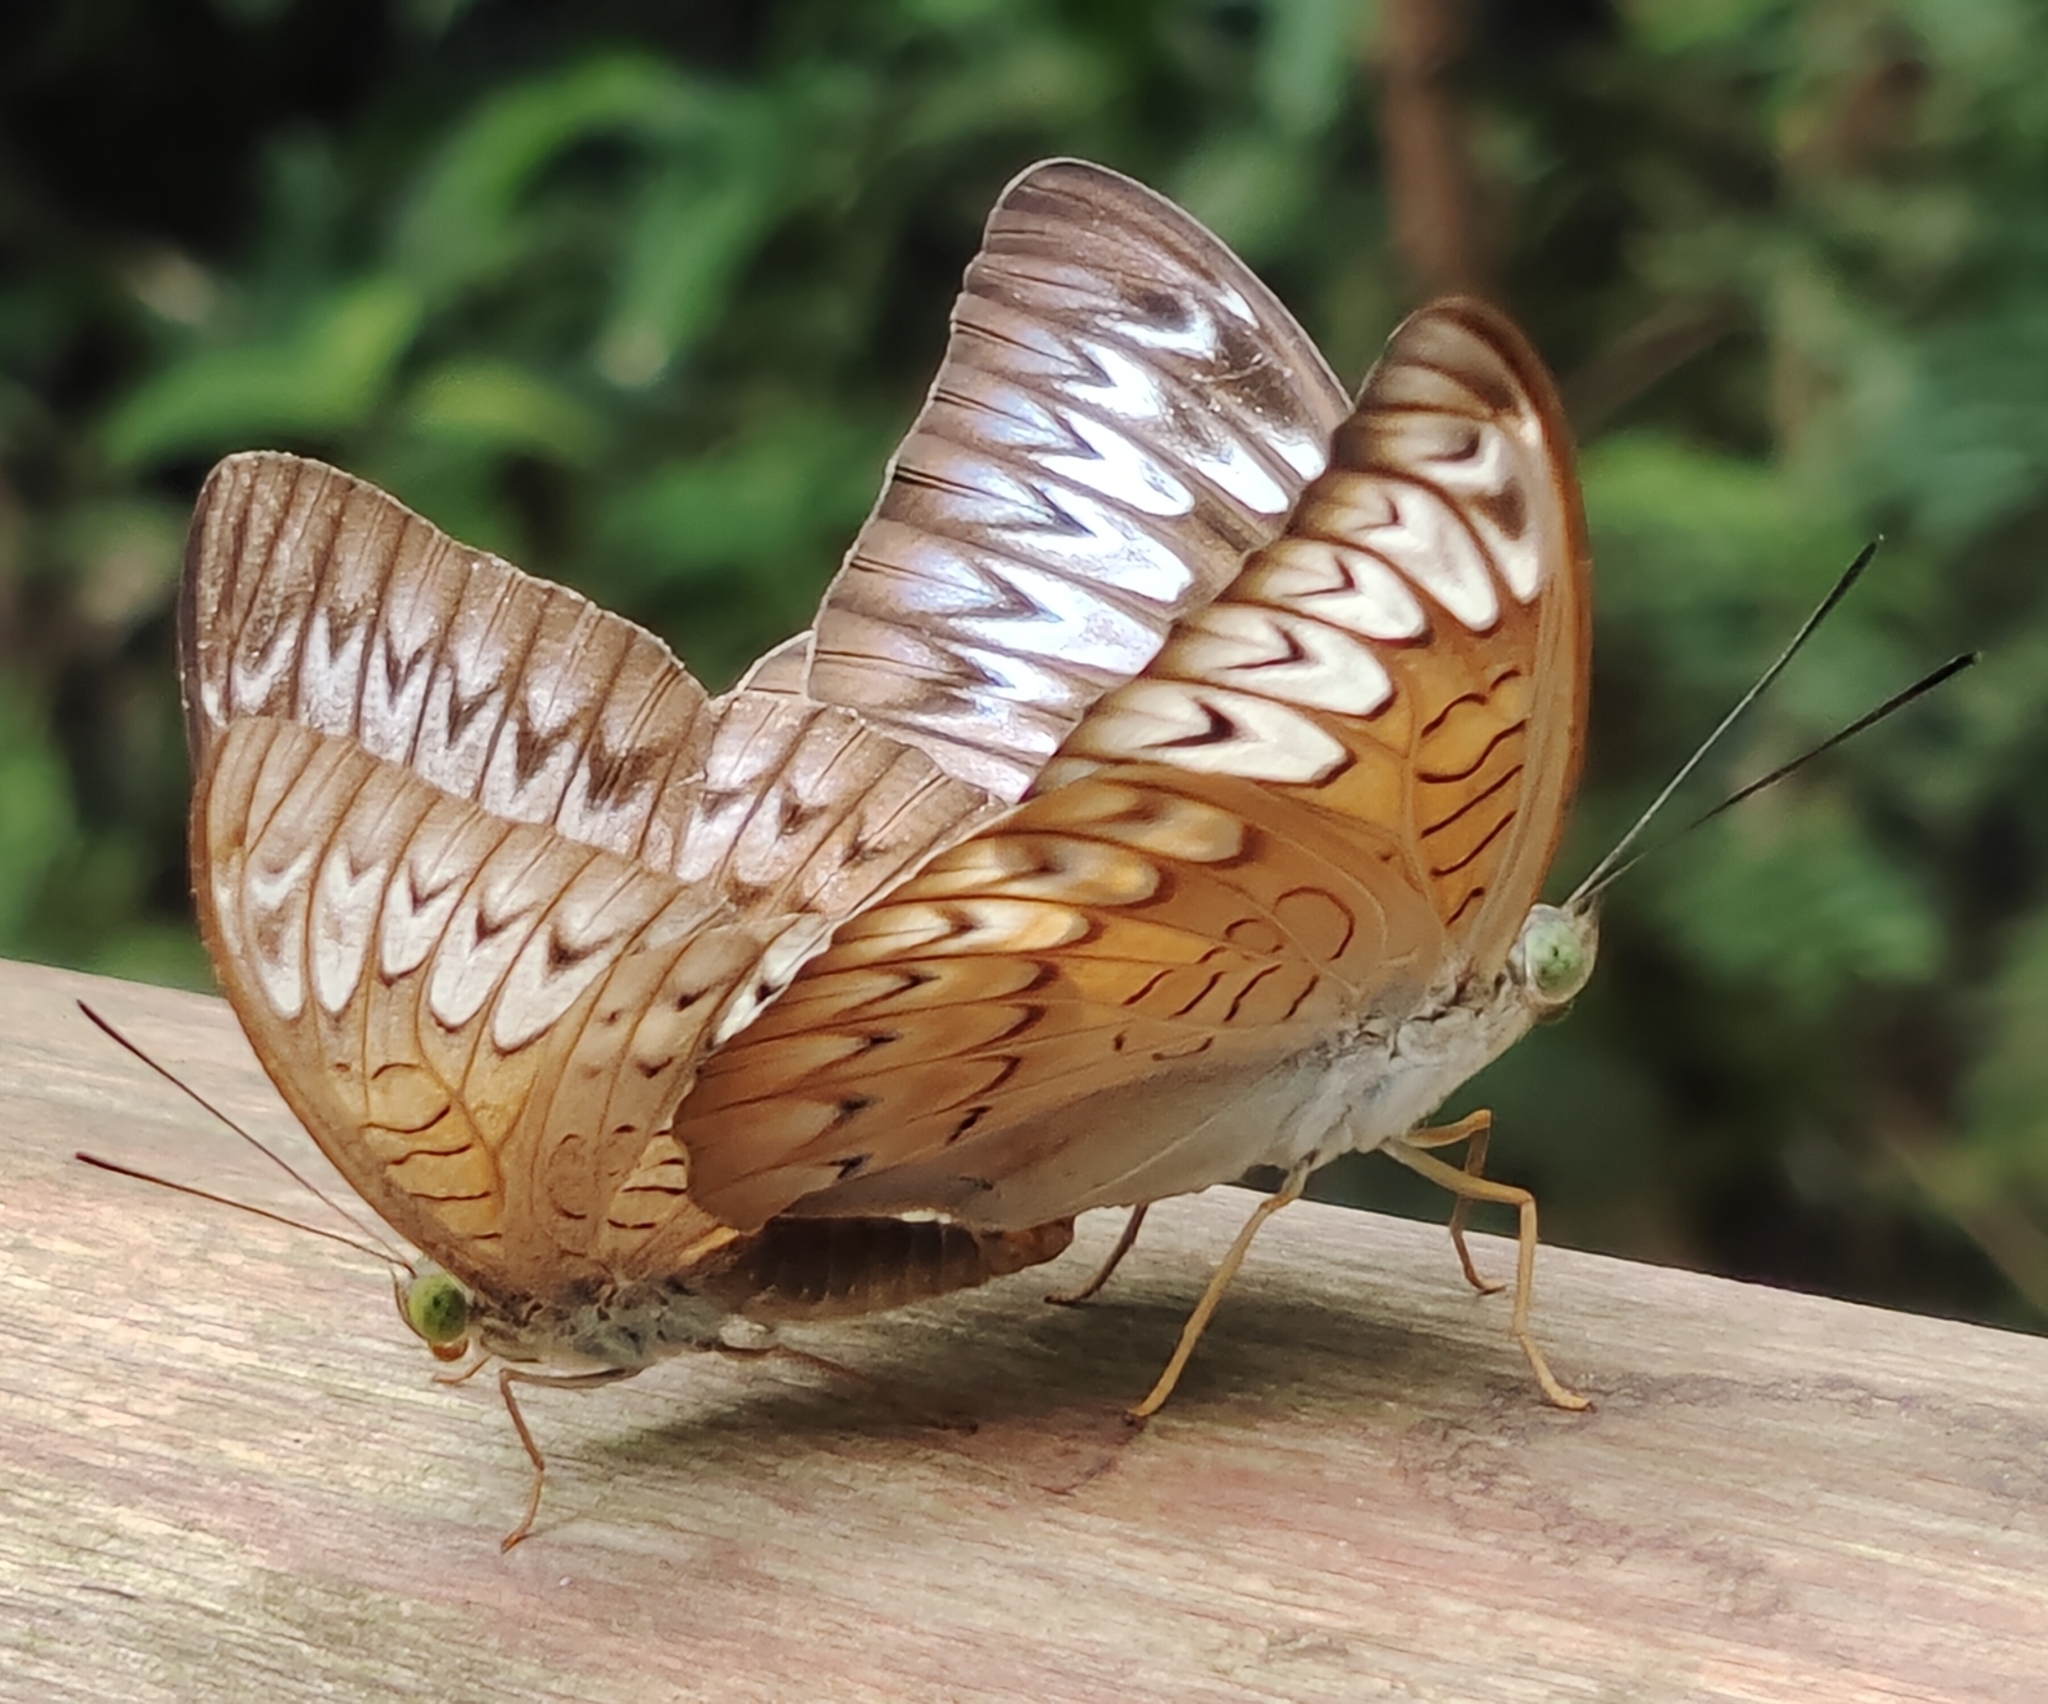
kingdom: Animalia
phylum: Arthropoda
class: Insecta
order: Lepidoptera
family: Nymphalidae
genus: Tanaecia
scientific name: Tanaecia pelea
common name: Malay viscount
